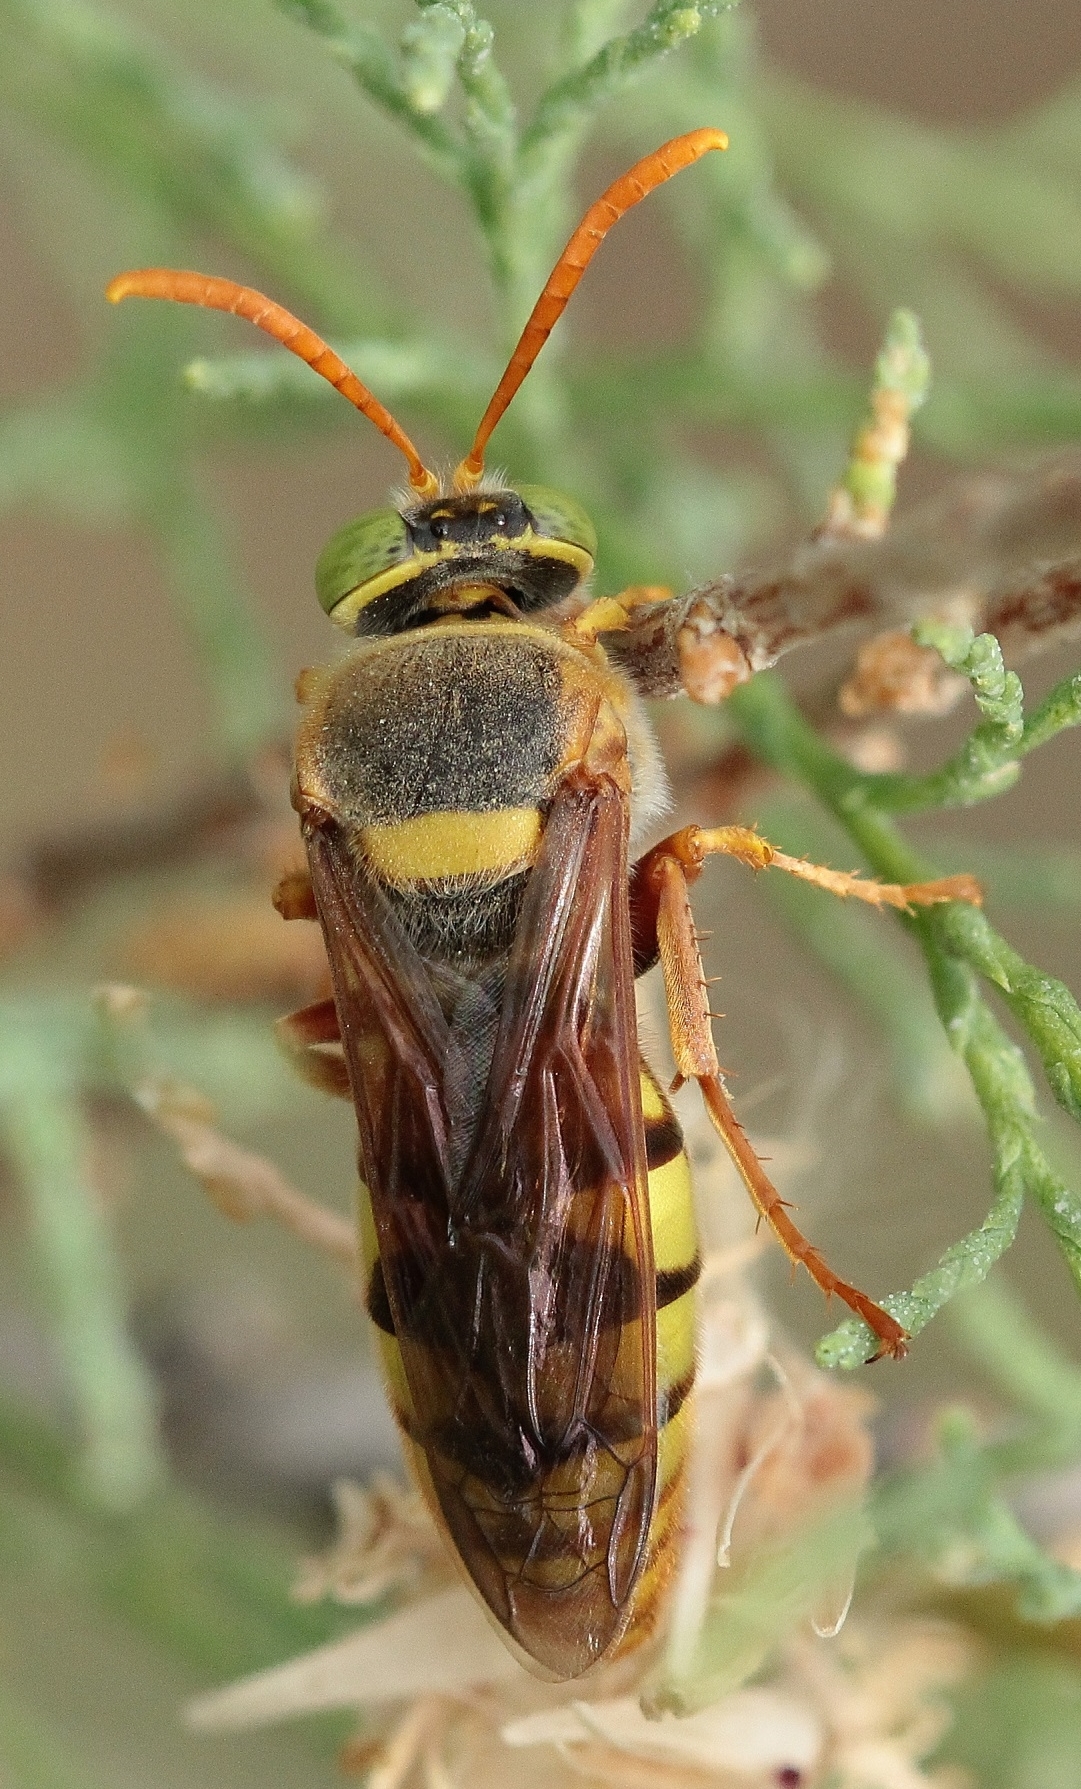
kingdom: Animalia
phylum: Arthropoda
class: Insecta
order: Hymenoptera
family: Crabronidae
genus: Stizus
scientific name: Stizus ruficornis
